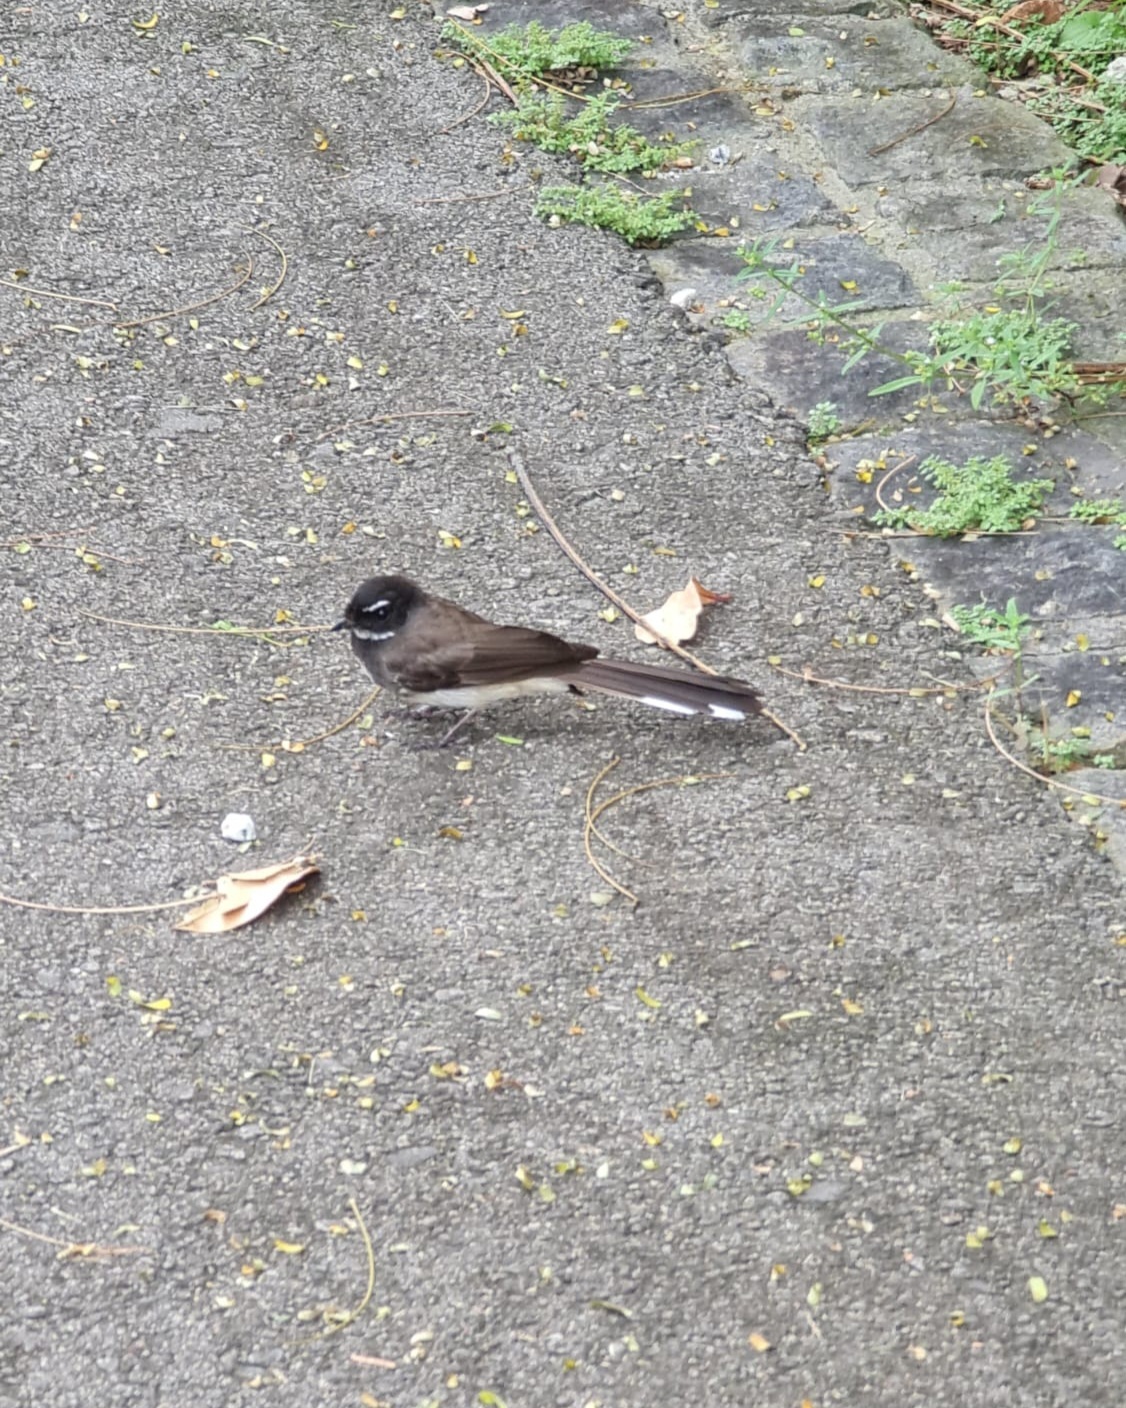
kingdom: Animalia
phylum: Chordata
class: Aves
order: Passeriformes
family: Rhipiduridae
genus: Rhipidura
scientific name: Rhipidura javanica
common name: Pied fantail
